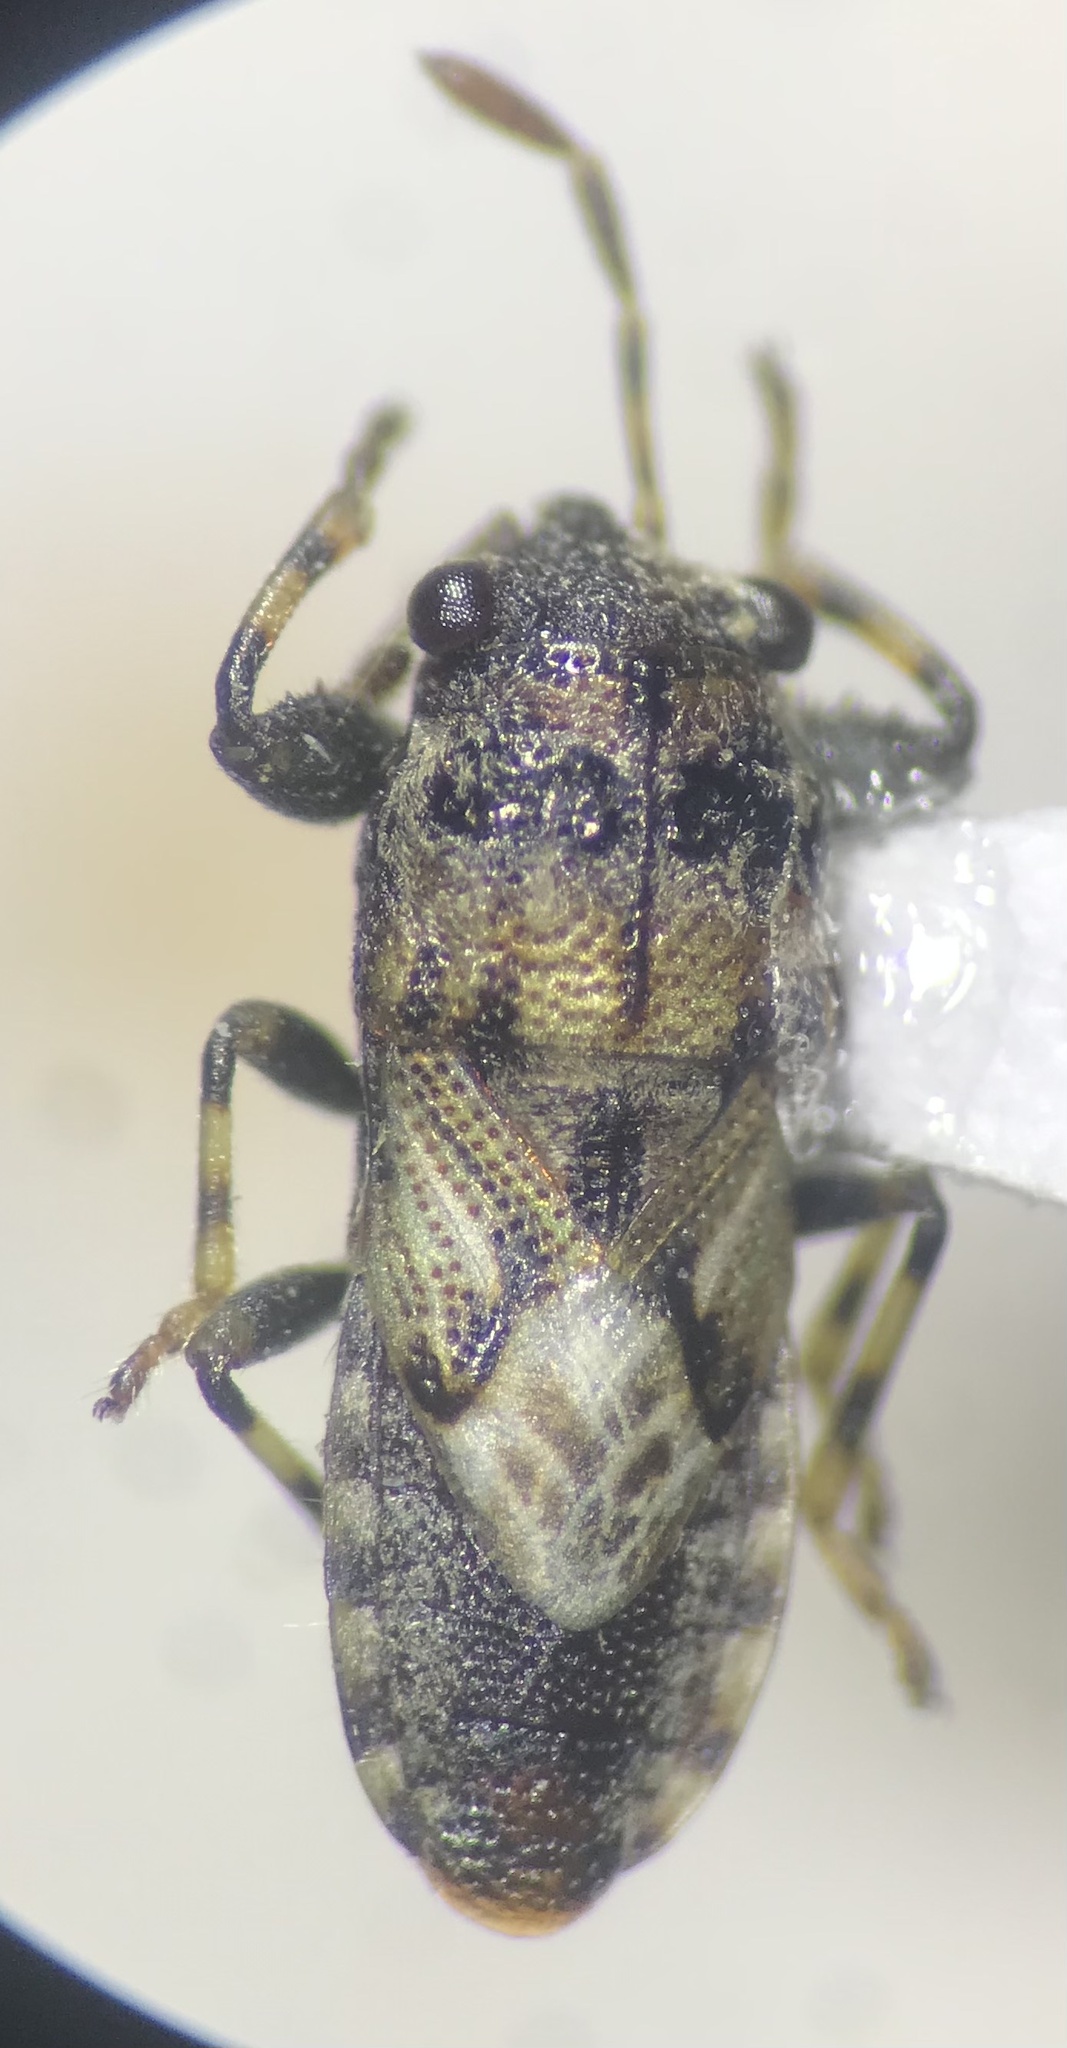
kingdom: Animalia
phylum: Arthropoda
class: Insecta
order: Hemiptera
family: Pachygronthidae
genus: Phlegyas
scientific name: Phlegyas abbreviatus
